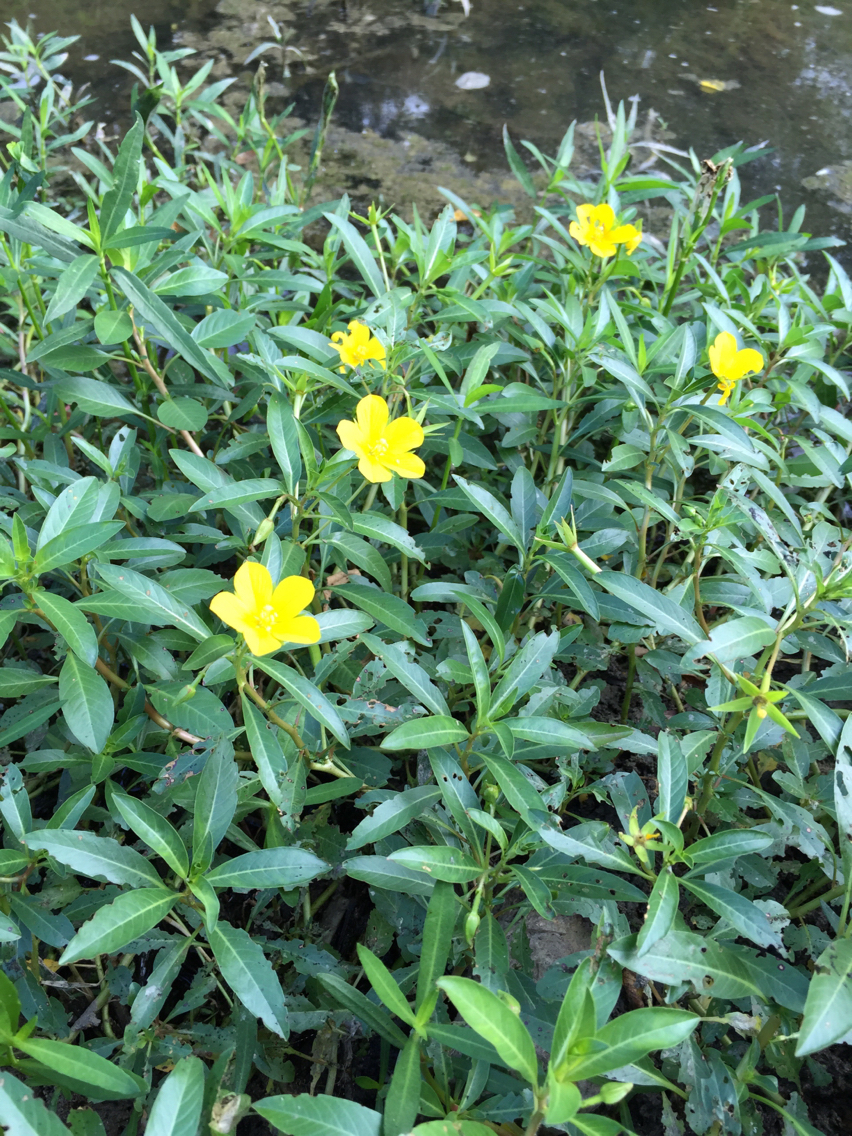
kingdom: Plantae
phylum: Tracheophyta
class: Magnoliopsida
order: Myrtales
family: Onagraceae
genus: Ludwigia
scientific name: Ludwigia peploides
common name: Floating primrose-willow
